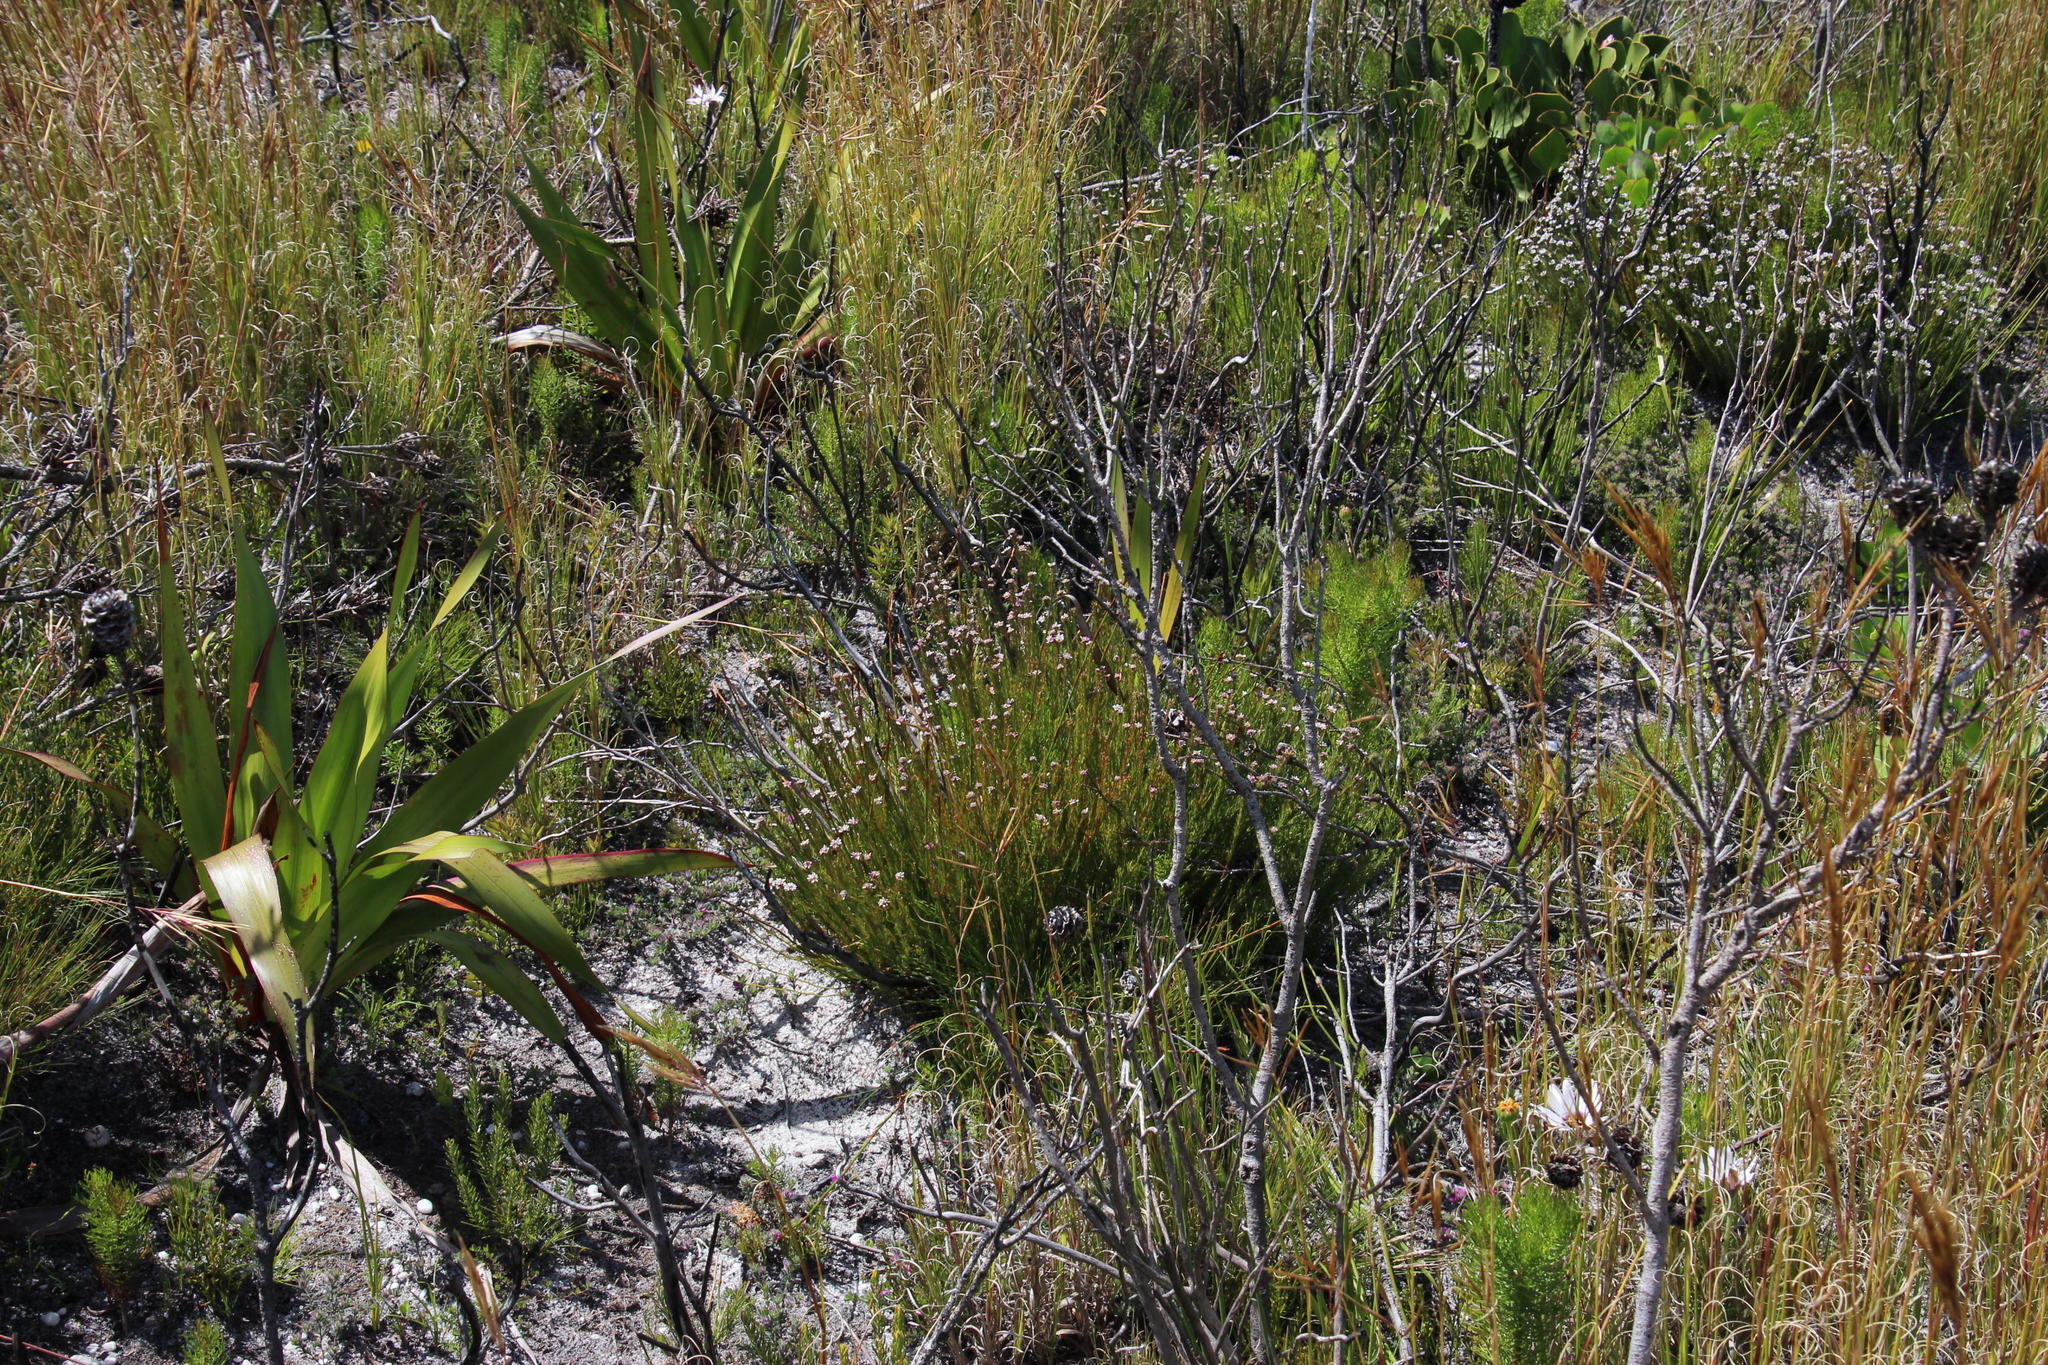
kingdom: Plantae
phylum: Tracheophyta
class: Magnoliopsida
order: Bruniales
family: Bruniaceae
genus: Staavia
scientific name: Staavia radiata
